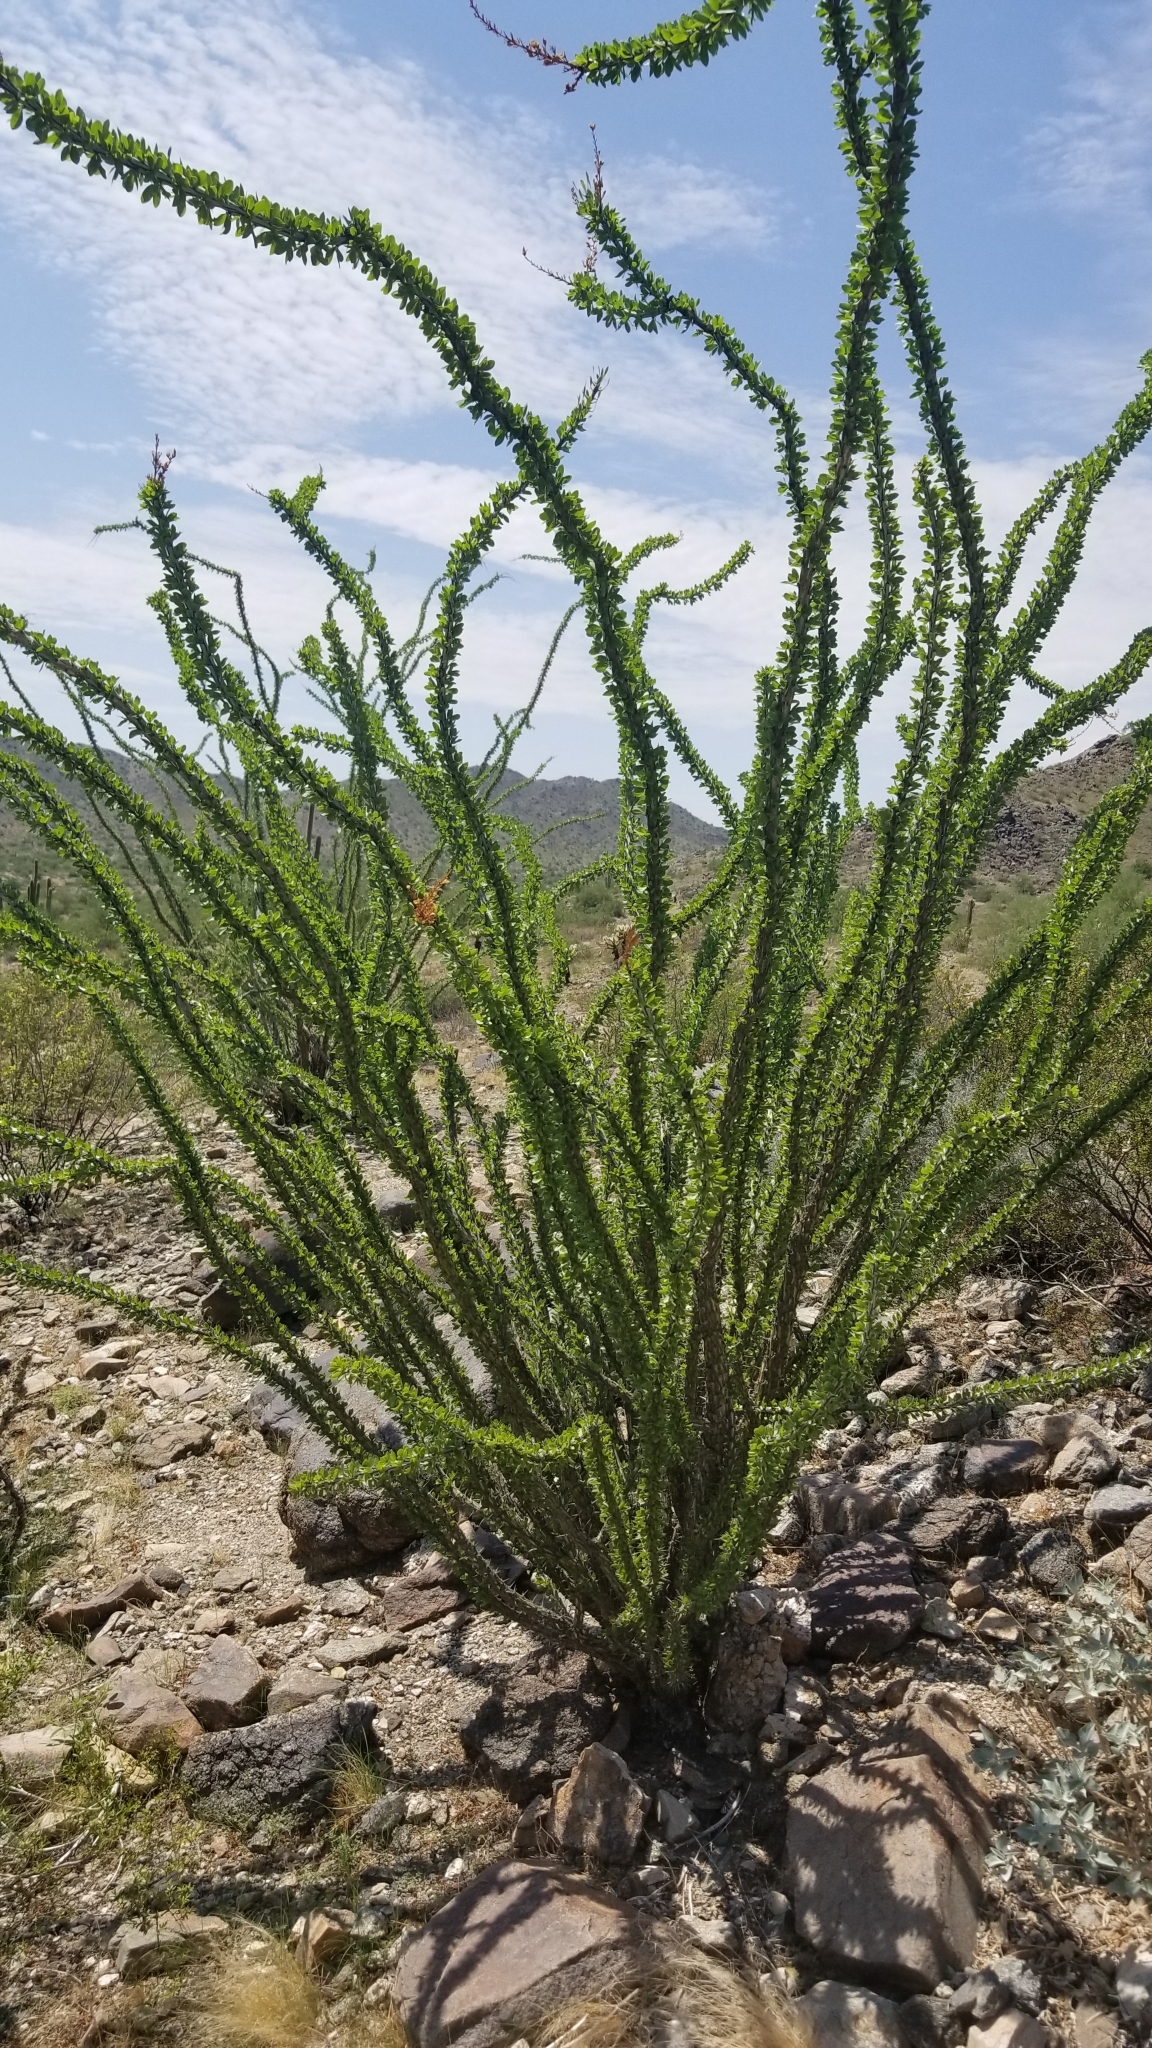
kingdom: Plantae
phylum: Tracheophyta
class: Magnoliopsida
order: Ericales
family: Fouquieriaceae
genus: Fouquieria
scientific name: Fouquieria splendens
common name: Vine-cactus
